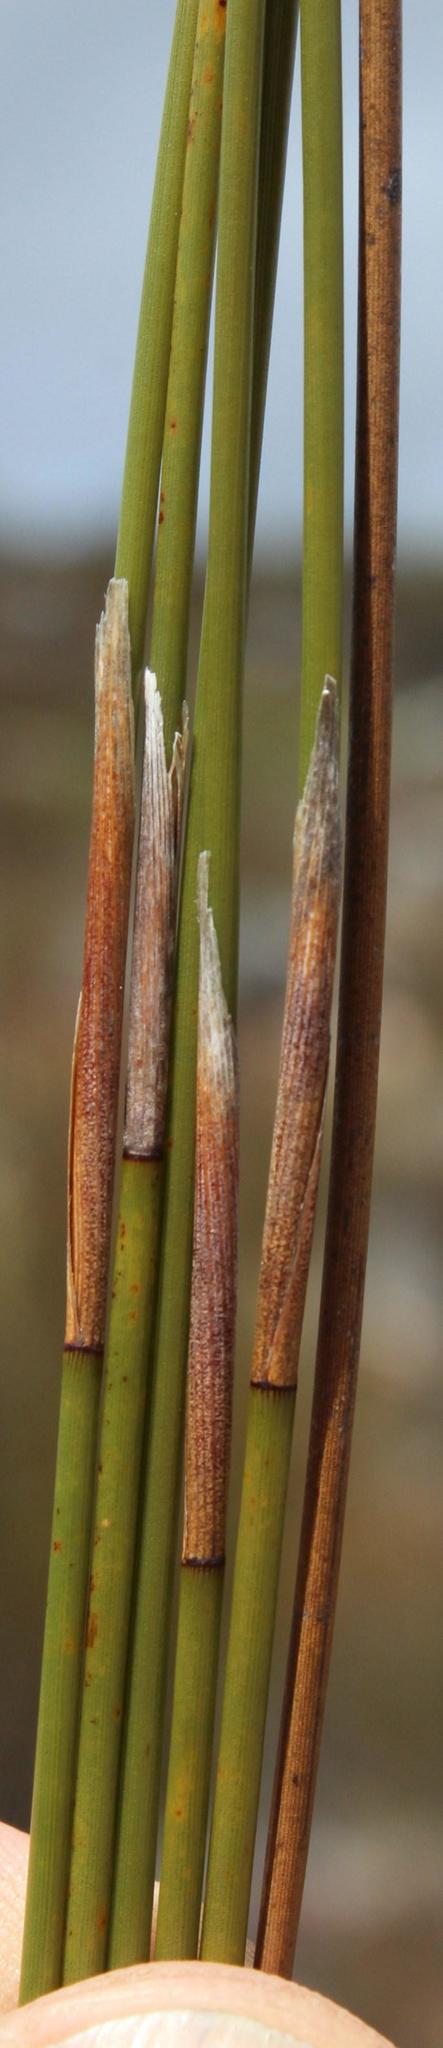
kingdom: Plantae
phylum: Tracheophyta
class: Liliopsida
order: Poales
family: Restionaceae
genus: Hypodiscus
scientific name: Hypodiscus aristatus
